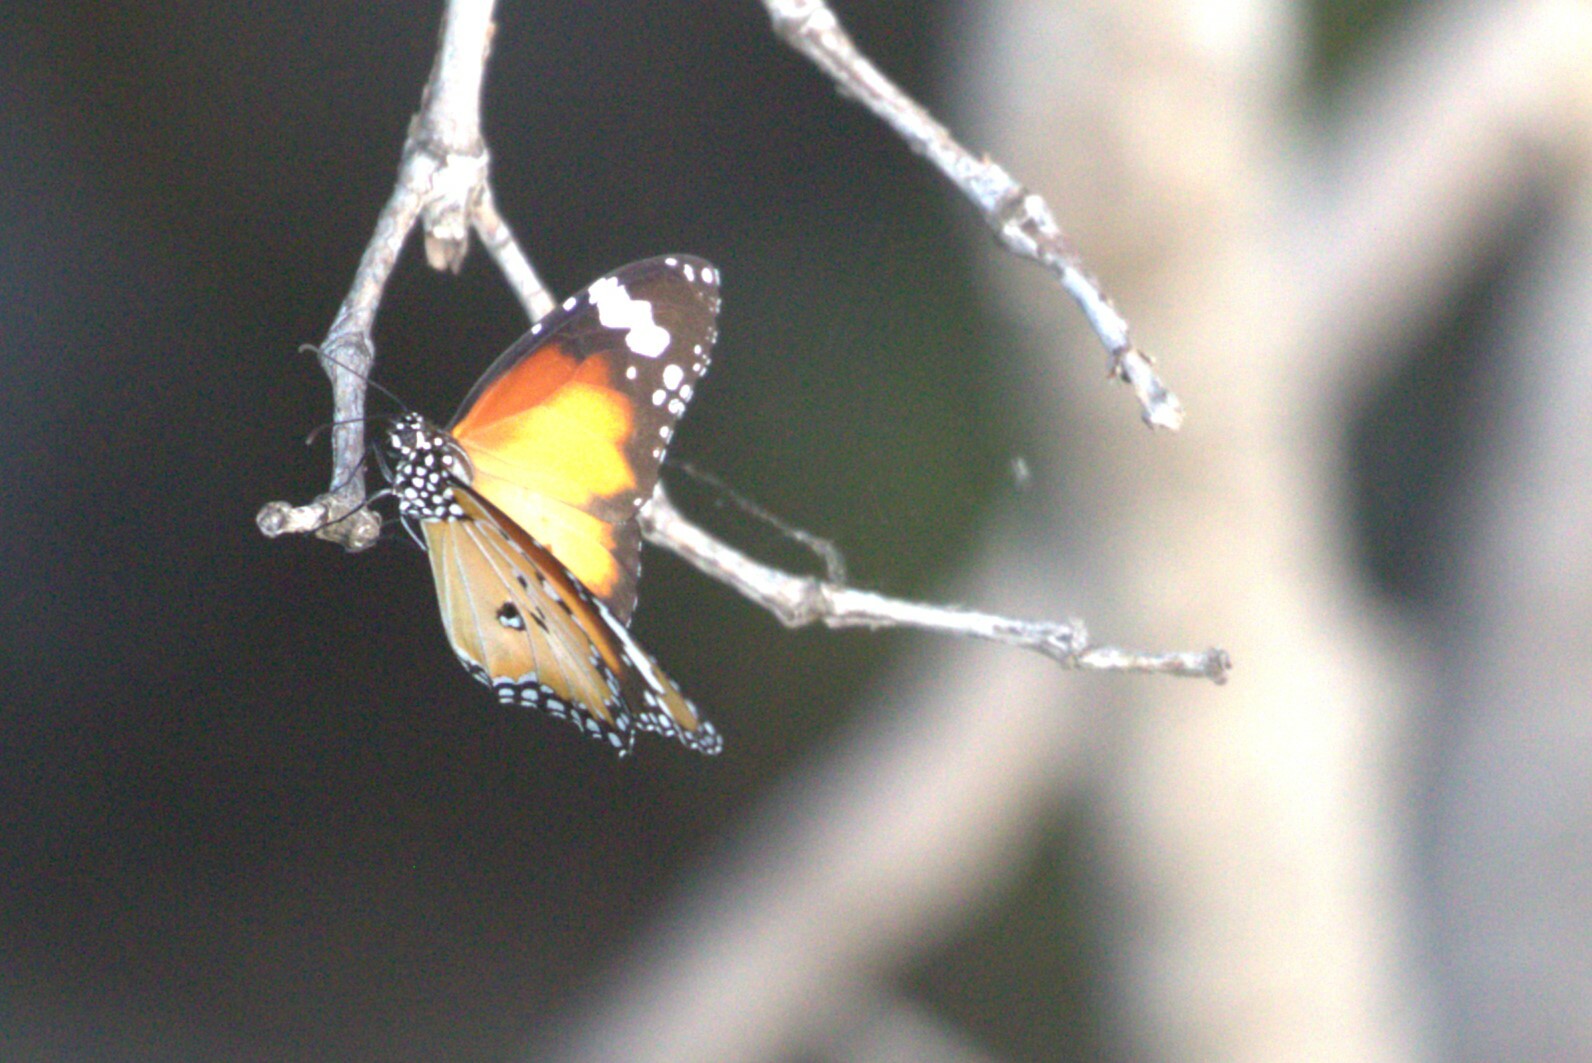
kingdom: Animalia
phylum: Arthropoda
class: Insecta
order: Lepidoptera
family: Nymphalidae
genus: Danaus
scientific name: Danaus chrysippus
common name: Plain tiger
